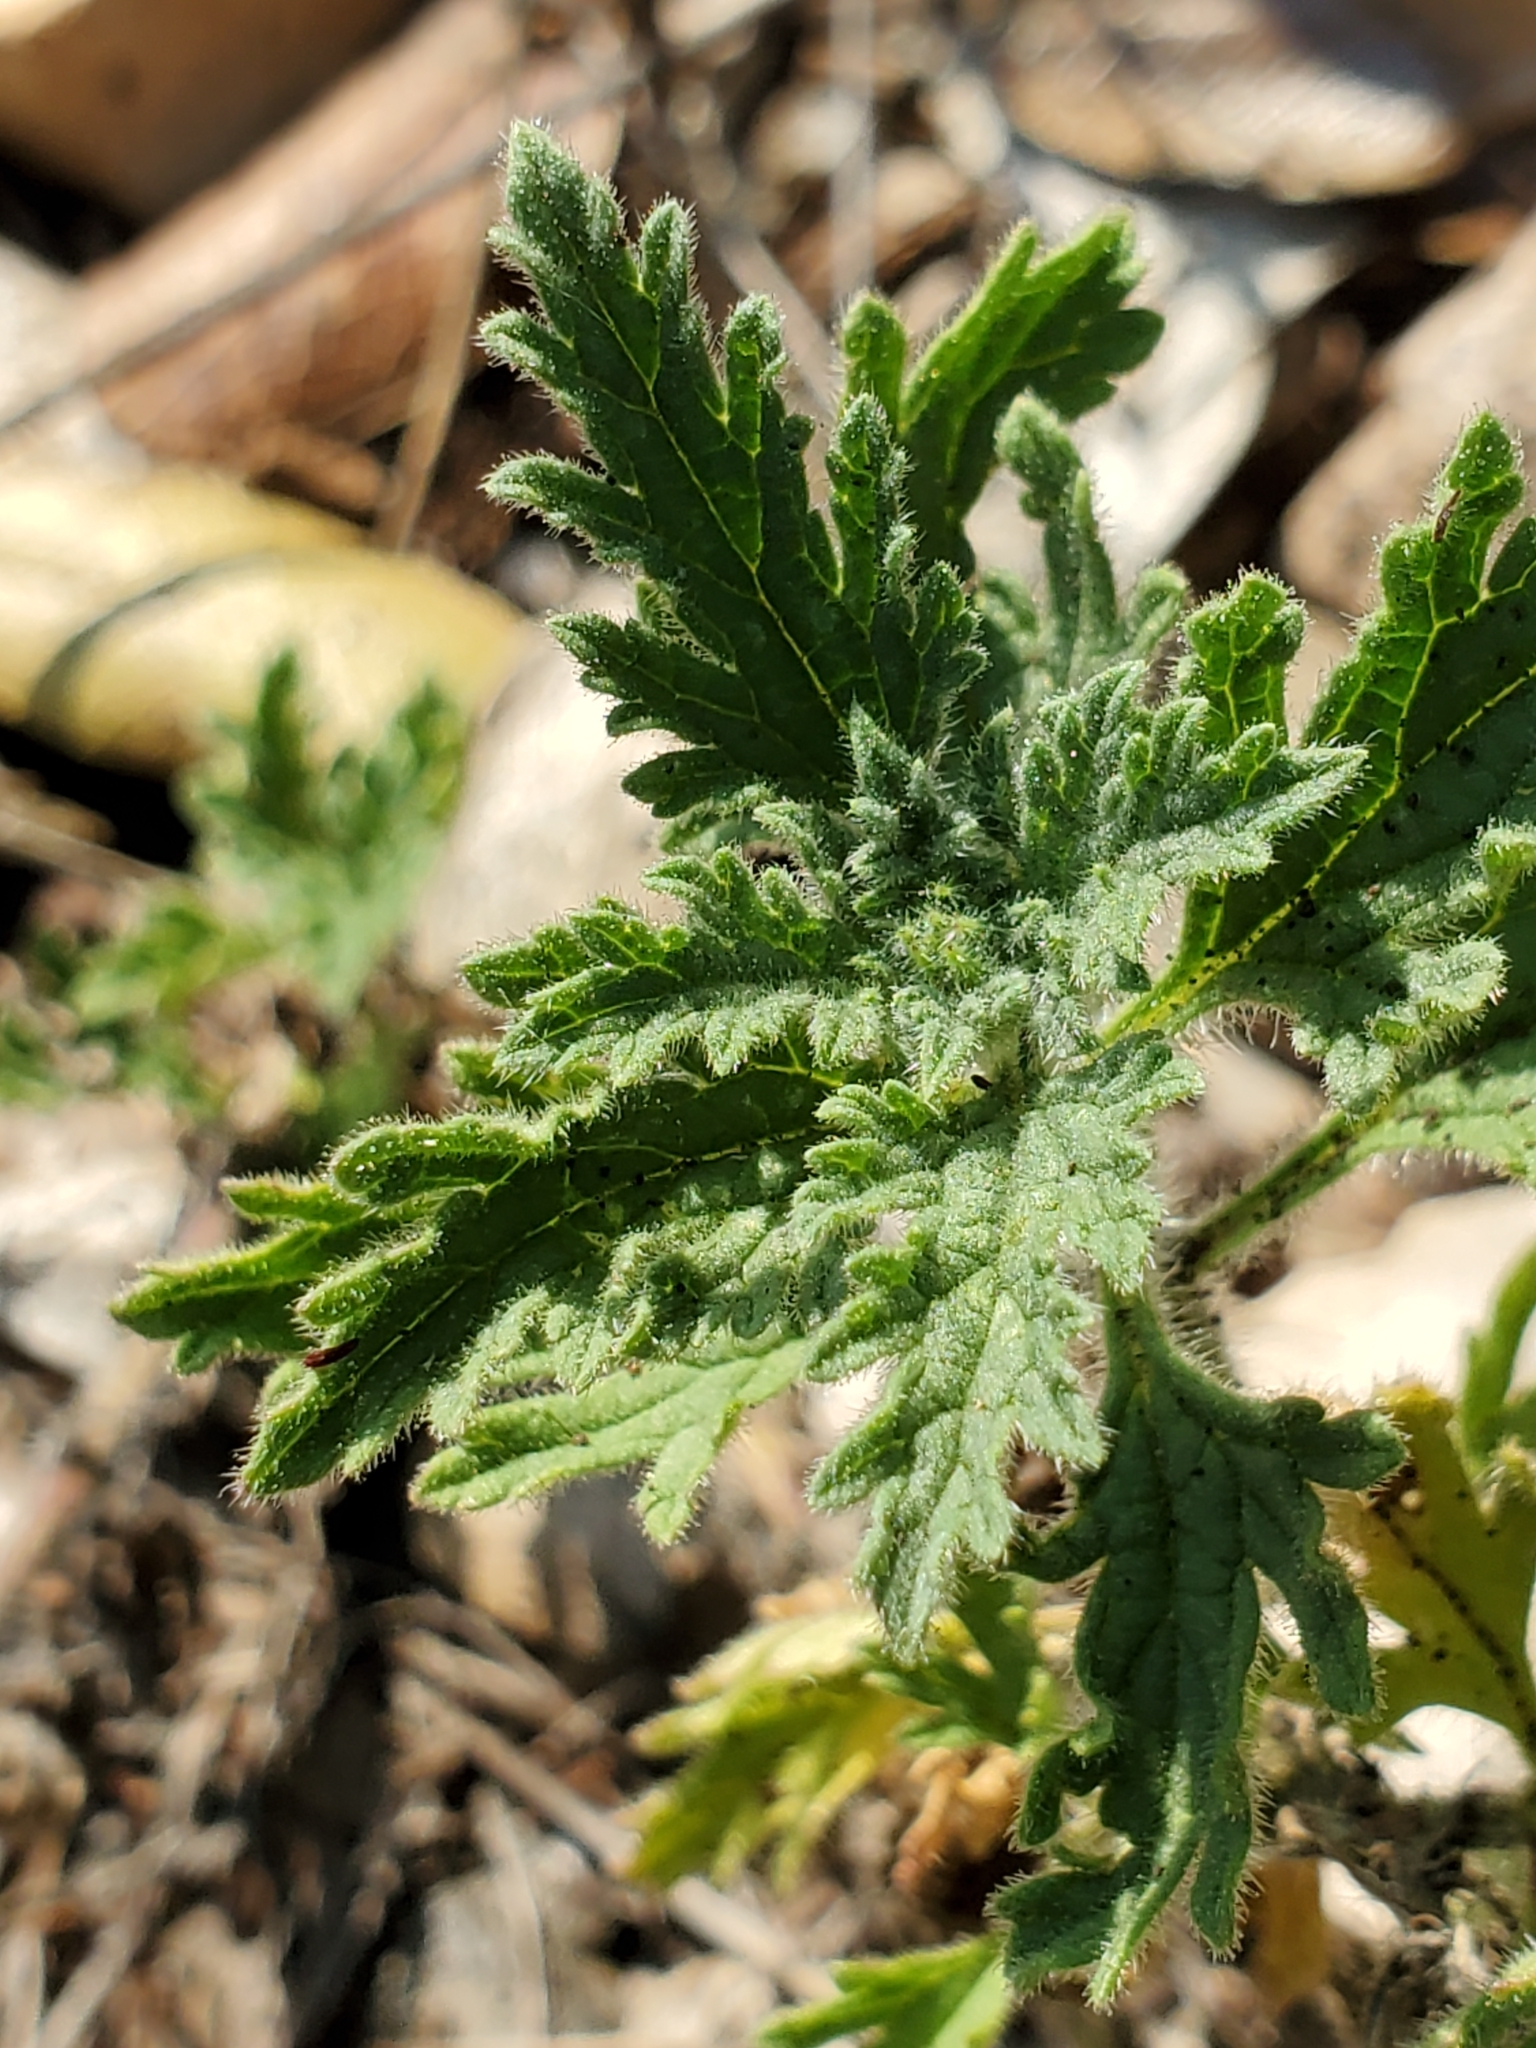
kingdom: Plantae
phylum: Tracheophyta
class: Magnoliopsida
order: Lamiales
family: Verbenaceae
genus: Verbena
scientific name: Verbena tumidula
